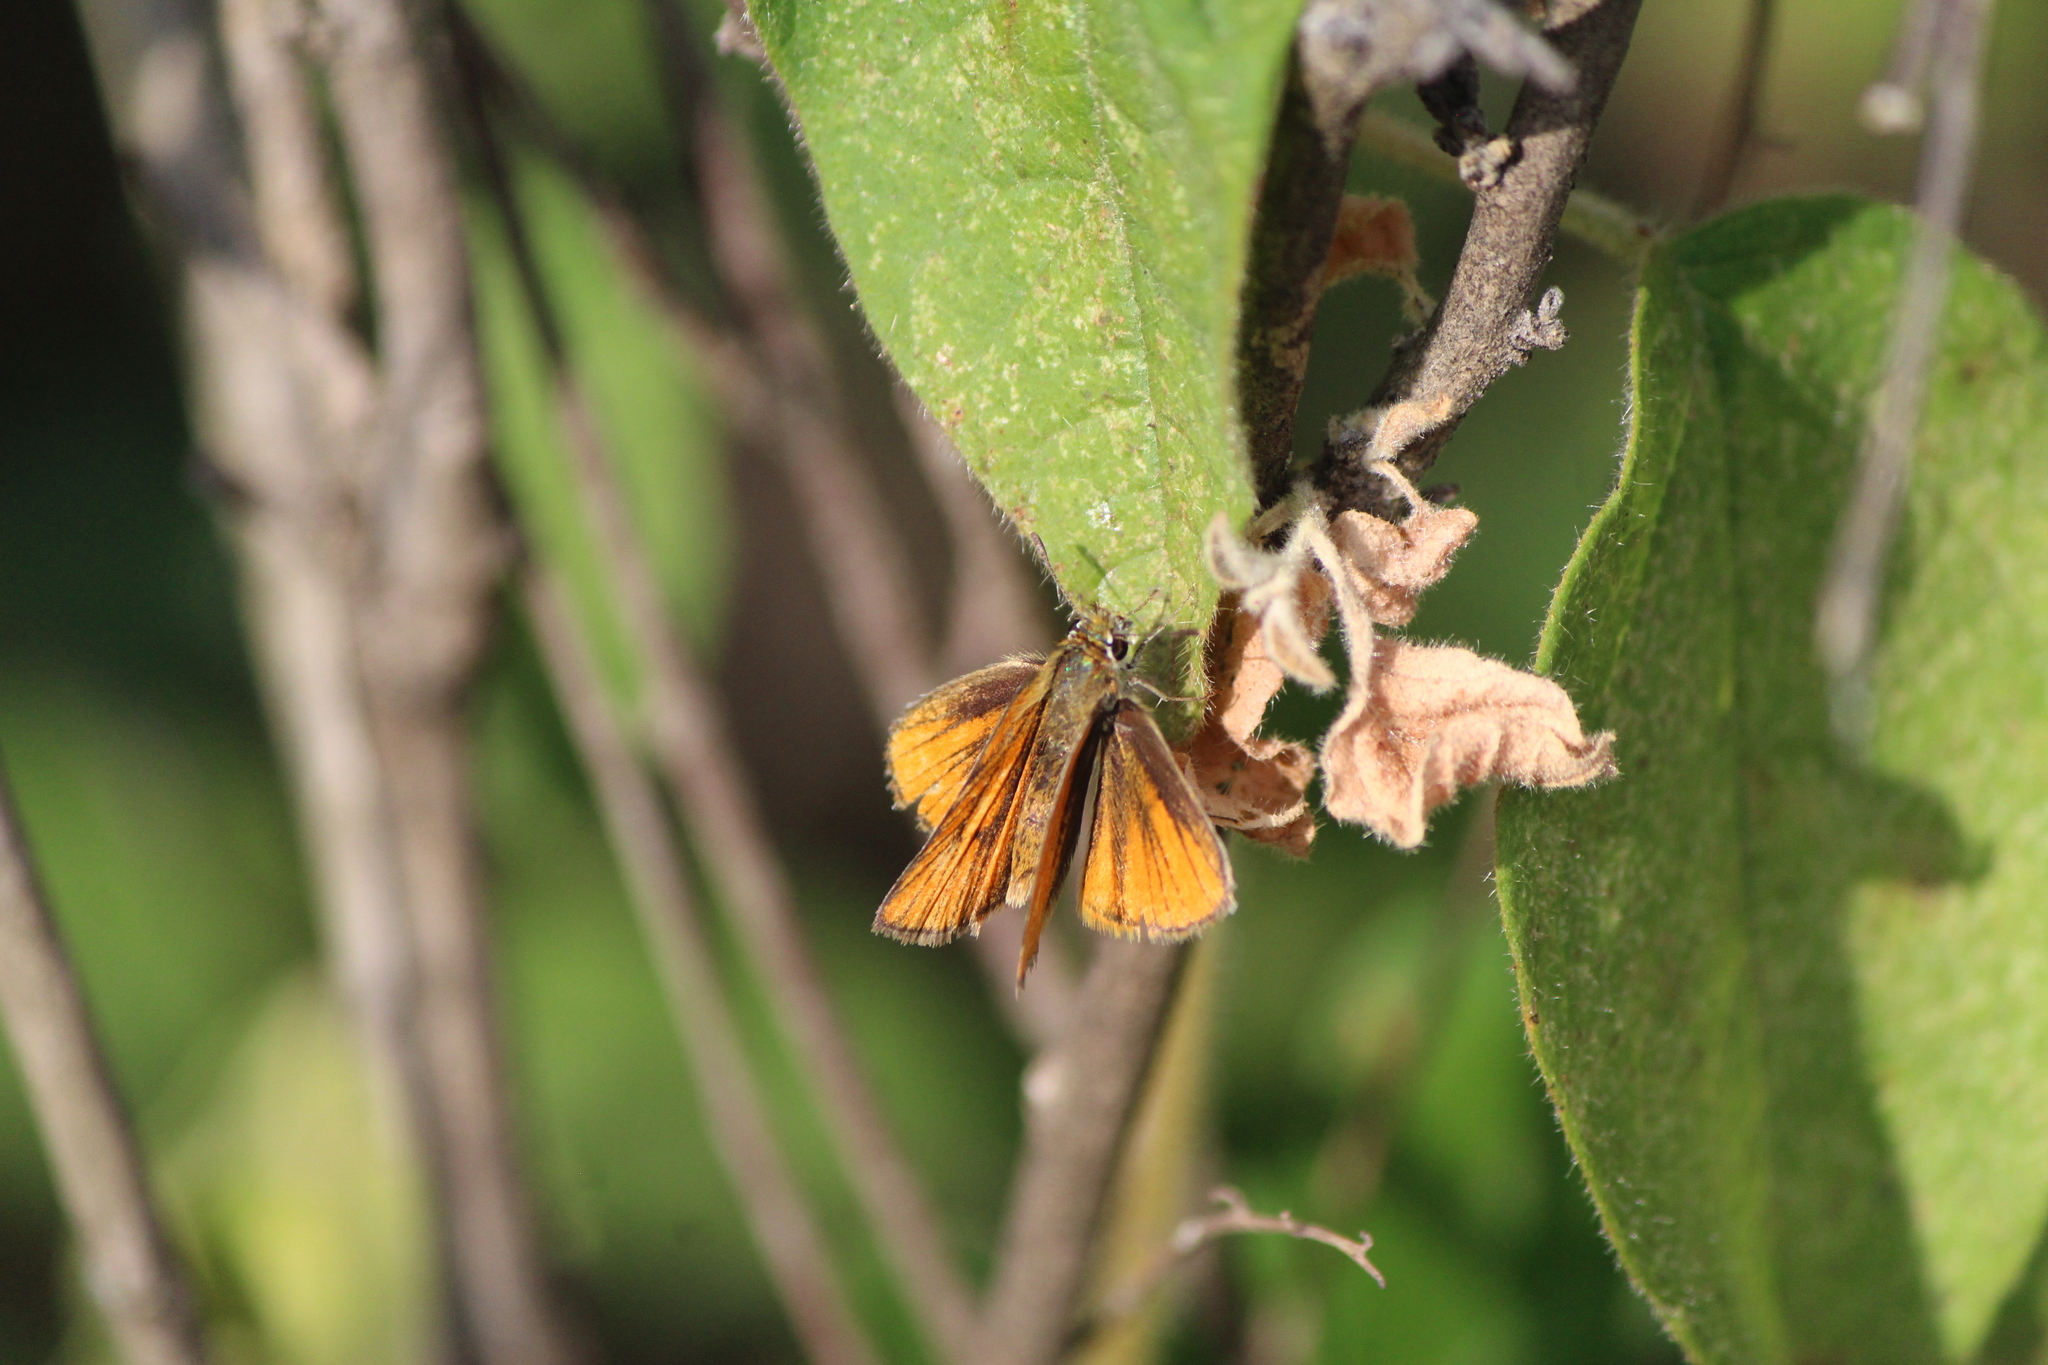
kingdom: Animalia
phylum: Arthropoda
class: Insecta
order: Lepidoptera
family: Hesperiidae
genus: Copaeodes
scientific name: Copaeodes aurantiaca
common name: Orange skipperling
